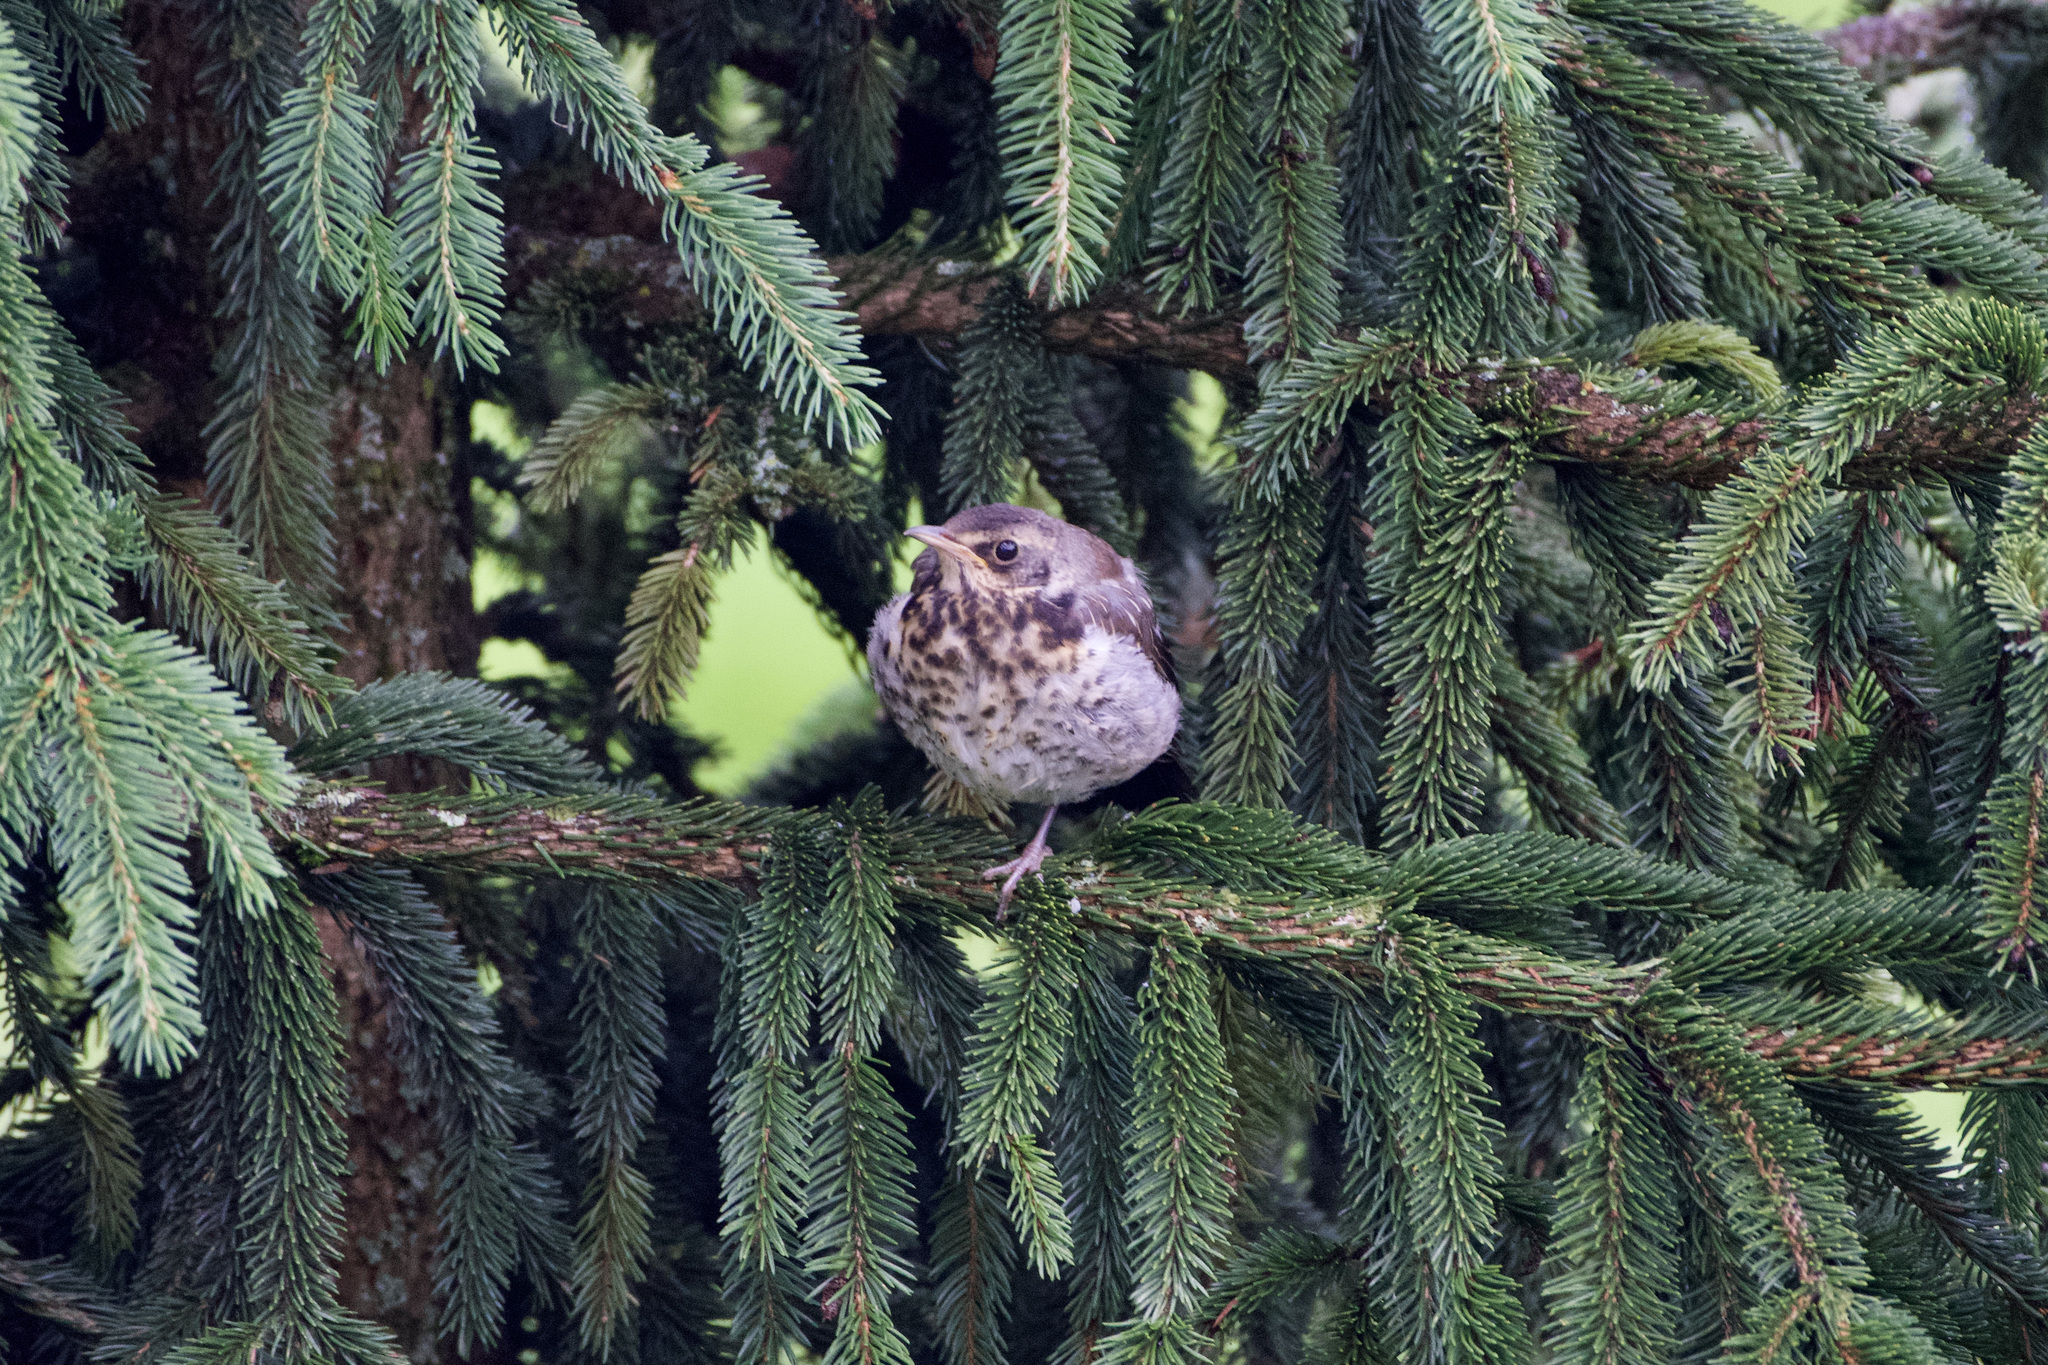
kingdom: Animalia
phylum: Chordata
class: Aves
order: Passeriformes
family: Turdidae
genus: Turdus
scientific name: Turdus pilaris
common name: Fieldfare
